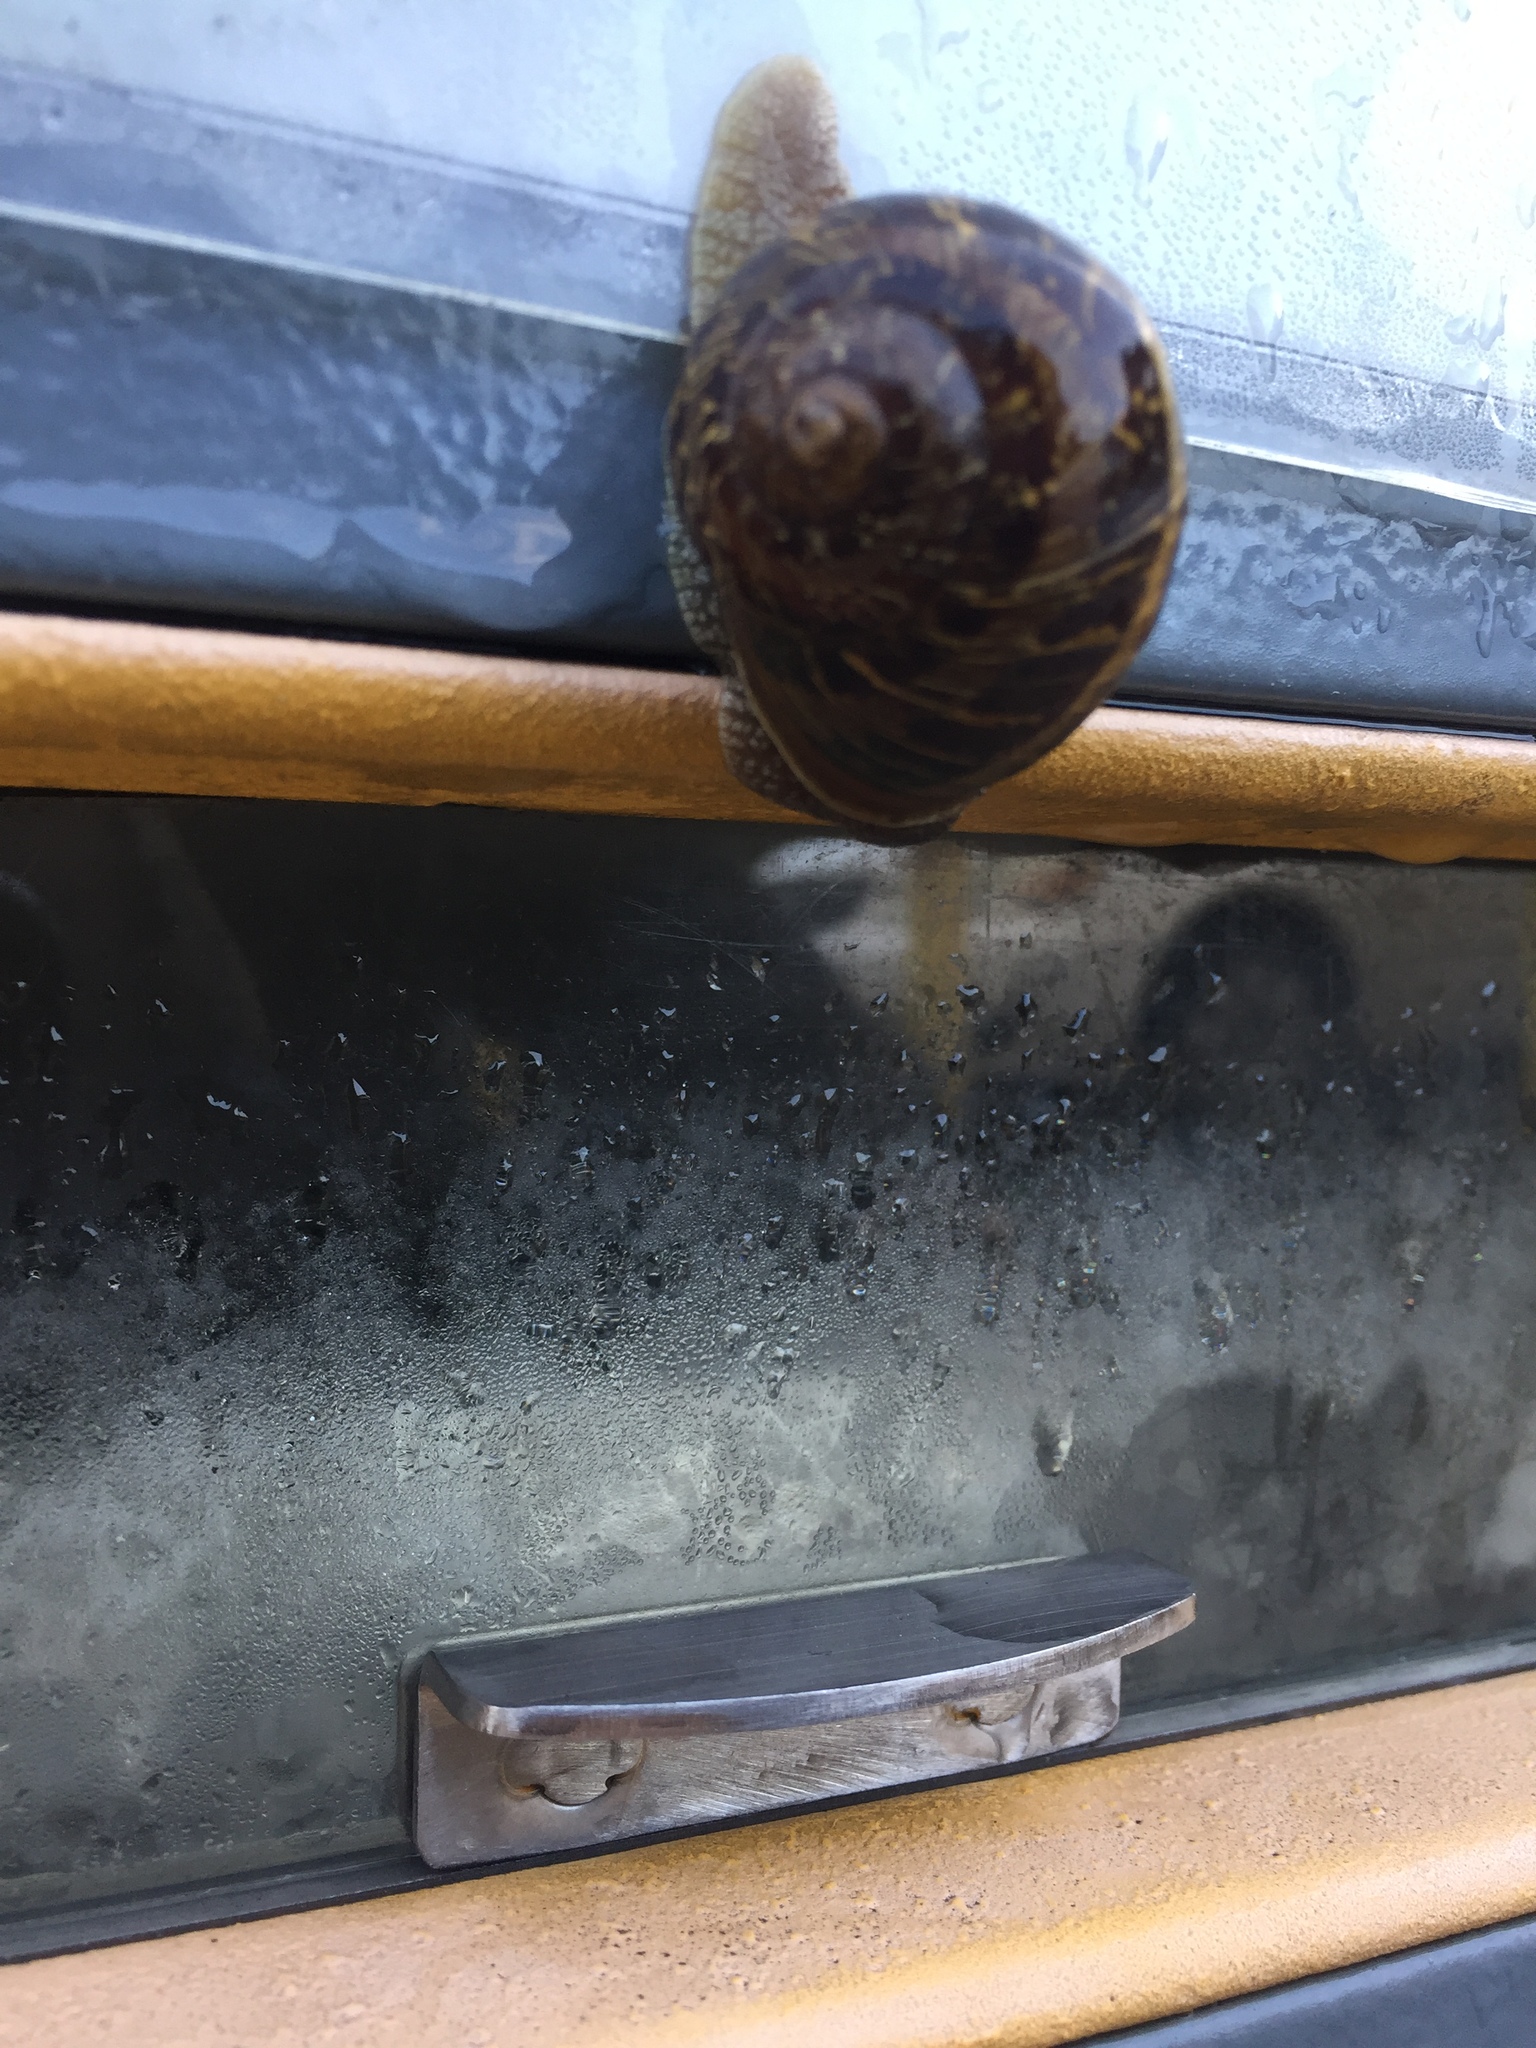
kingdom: Animalia
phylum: Mollusca
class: Gastropoda
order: Stylommatophora
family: Helicidae
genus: Cornu
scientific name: Cornu aspersum
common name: Brown garden snail
